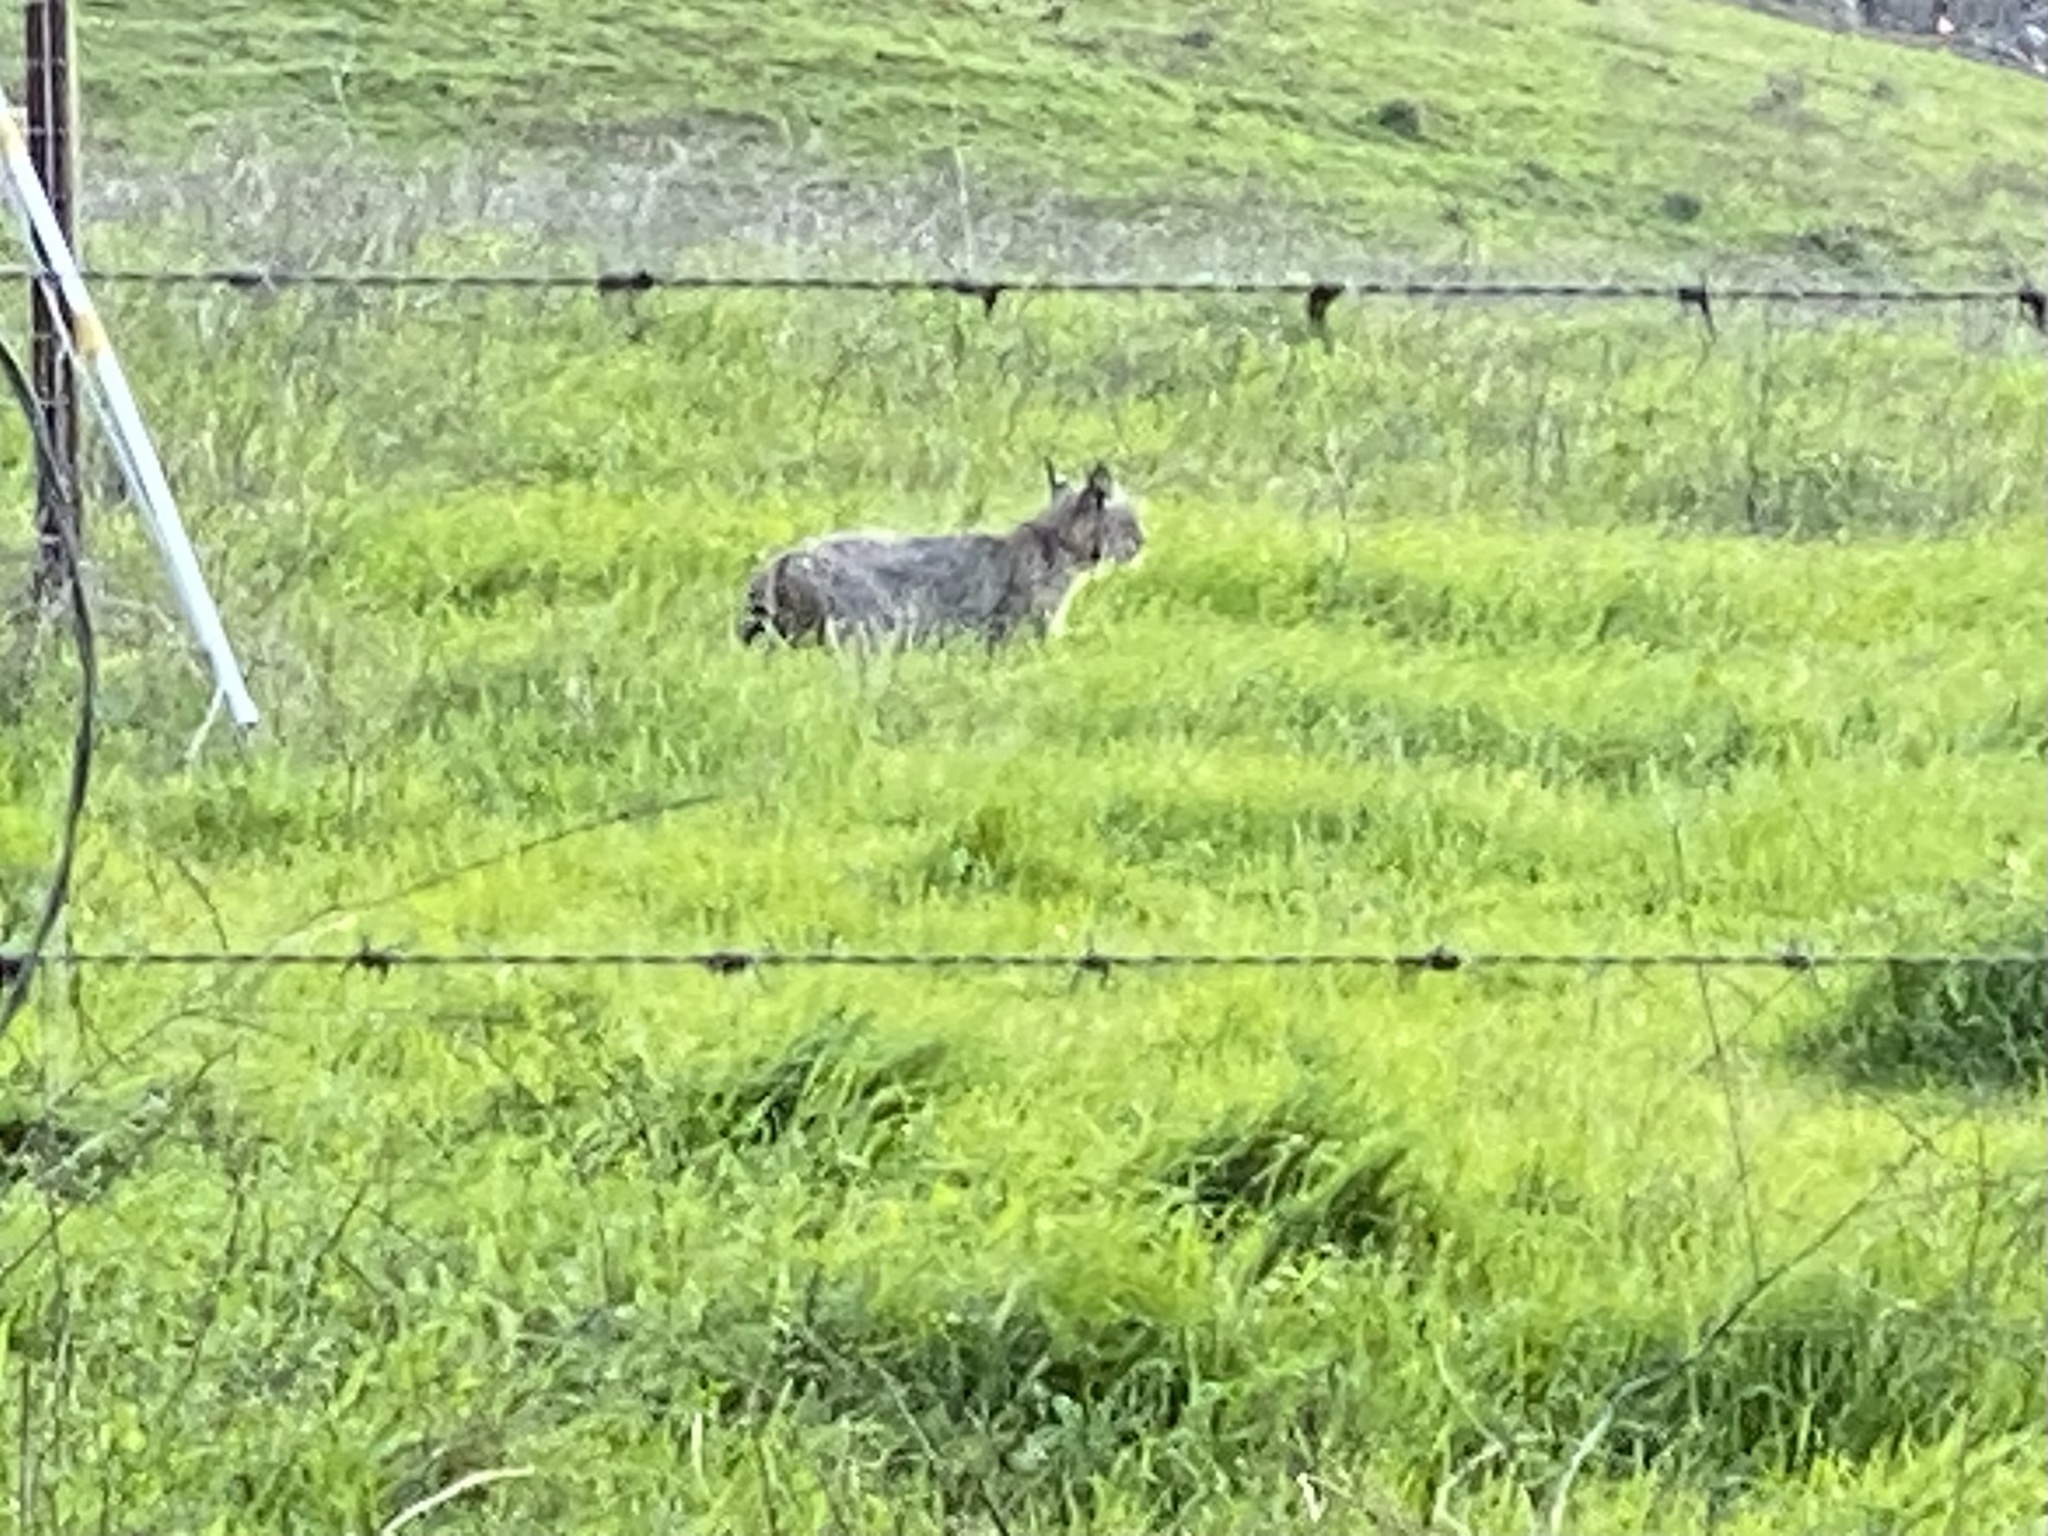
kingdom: Animalia
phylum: Chordata
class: Mammalia
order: Carnivora
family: Felidae
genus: Lynx
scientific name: Lynx rufus
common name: Bobcat
